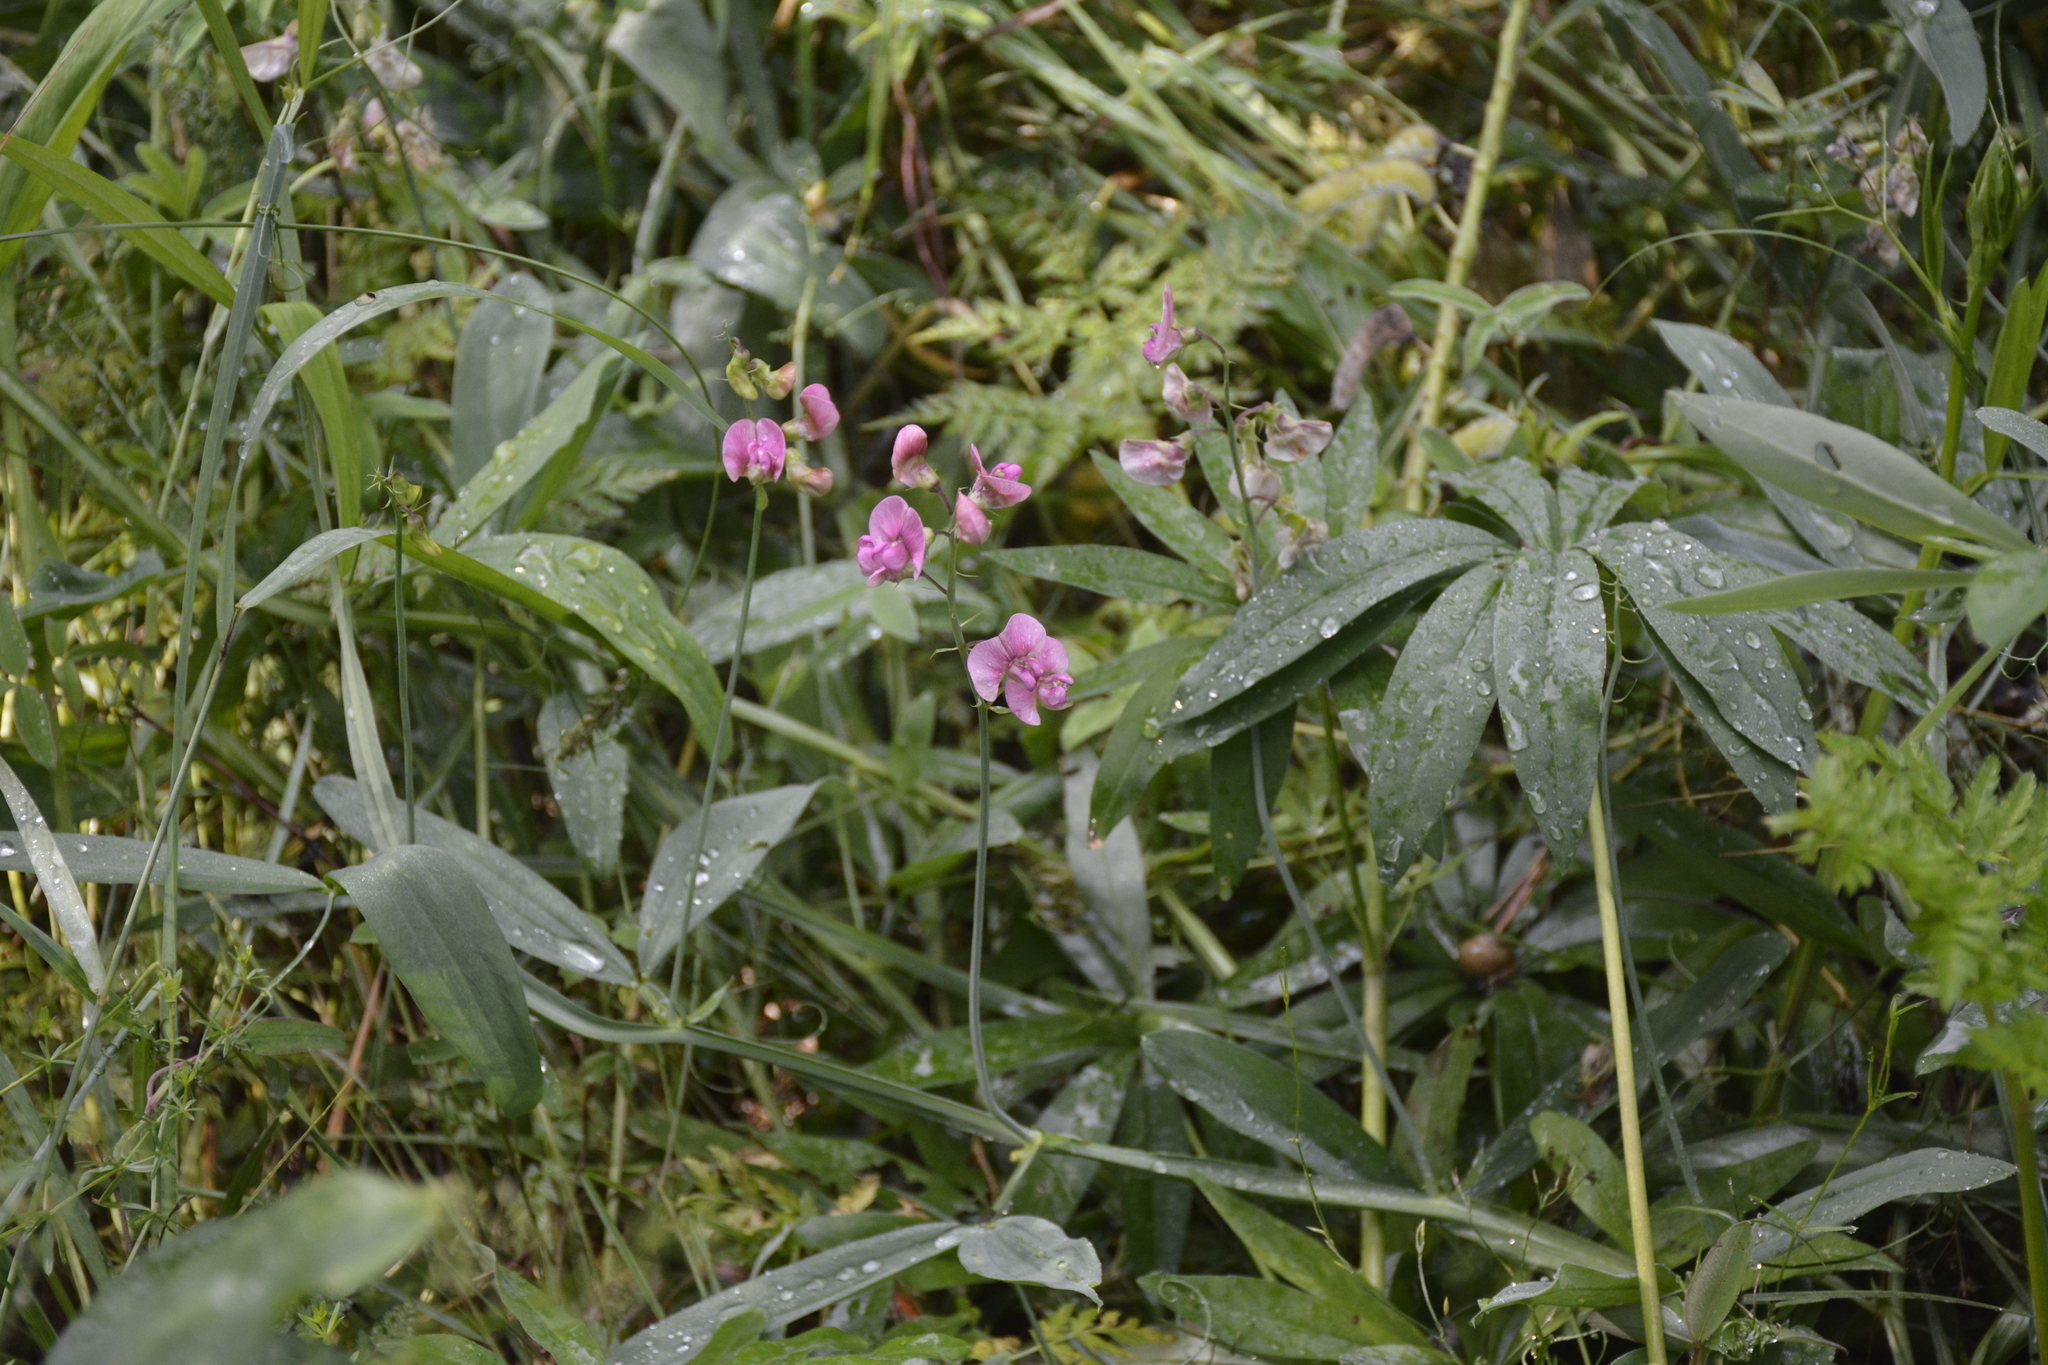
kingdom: Plantae
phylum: Tracheophyta
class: Magnoliopsida
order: Fabales
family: Fabaceae
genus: Lathyrus
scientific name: Lathyrus sylvestris
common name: Flat pea
